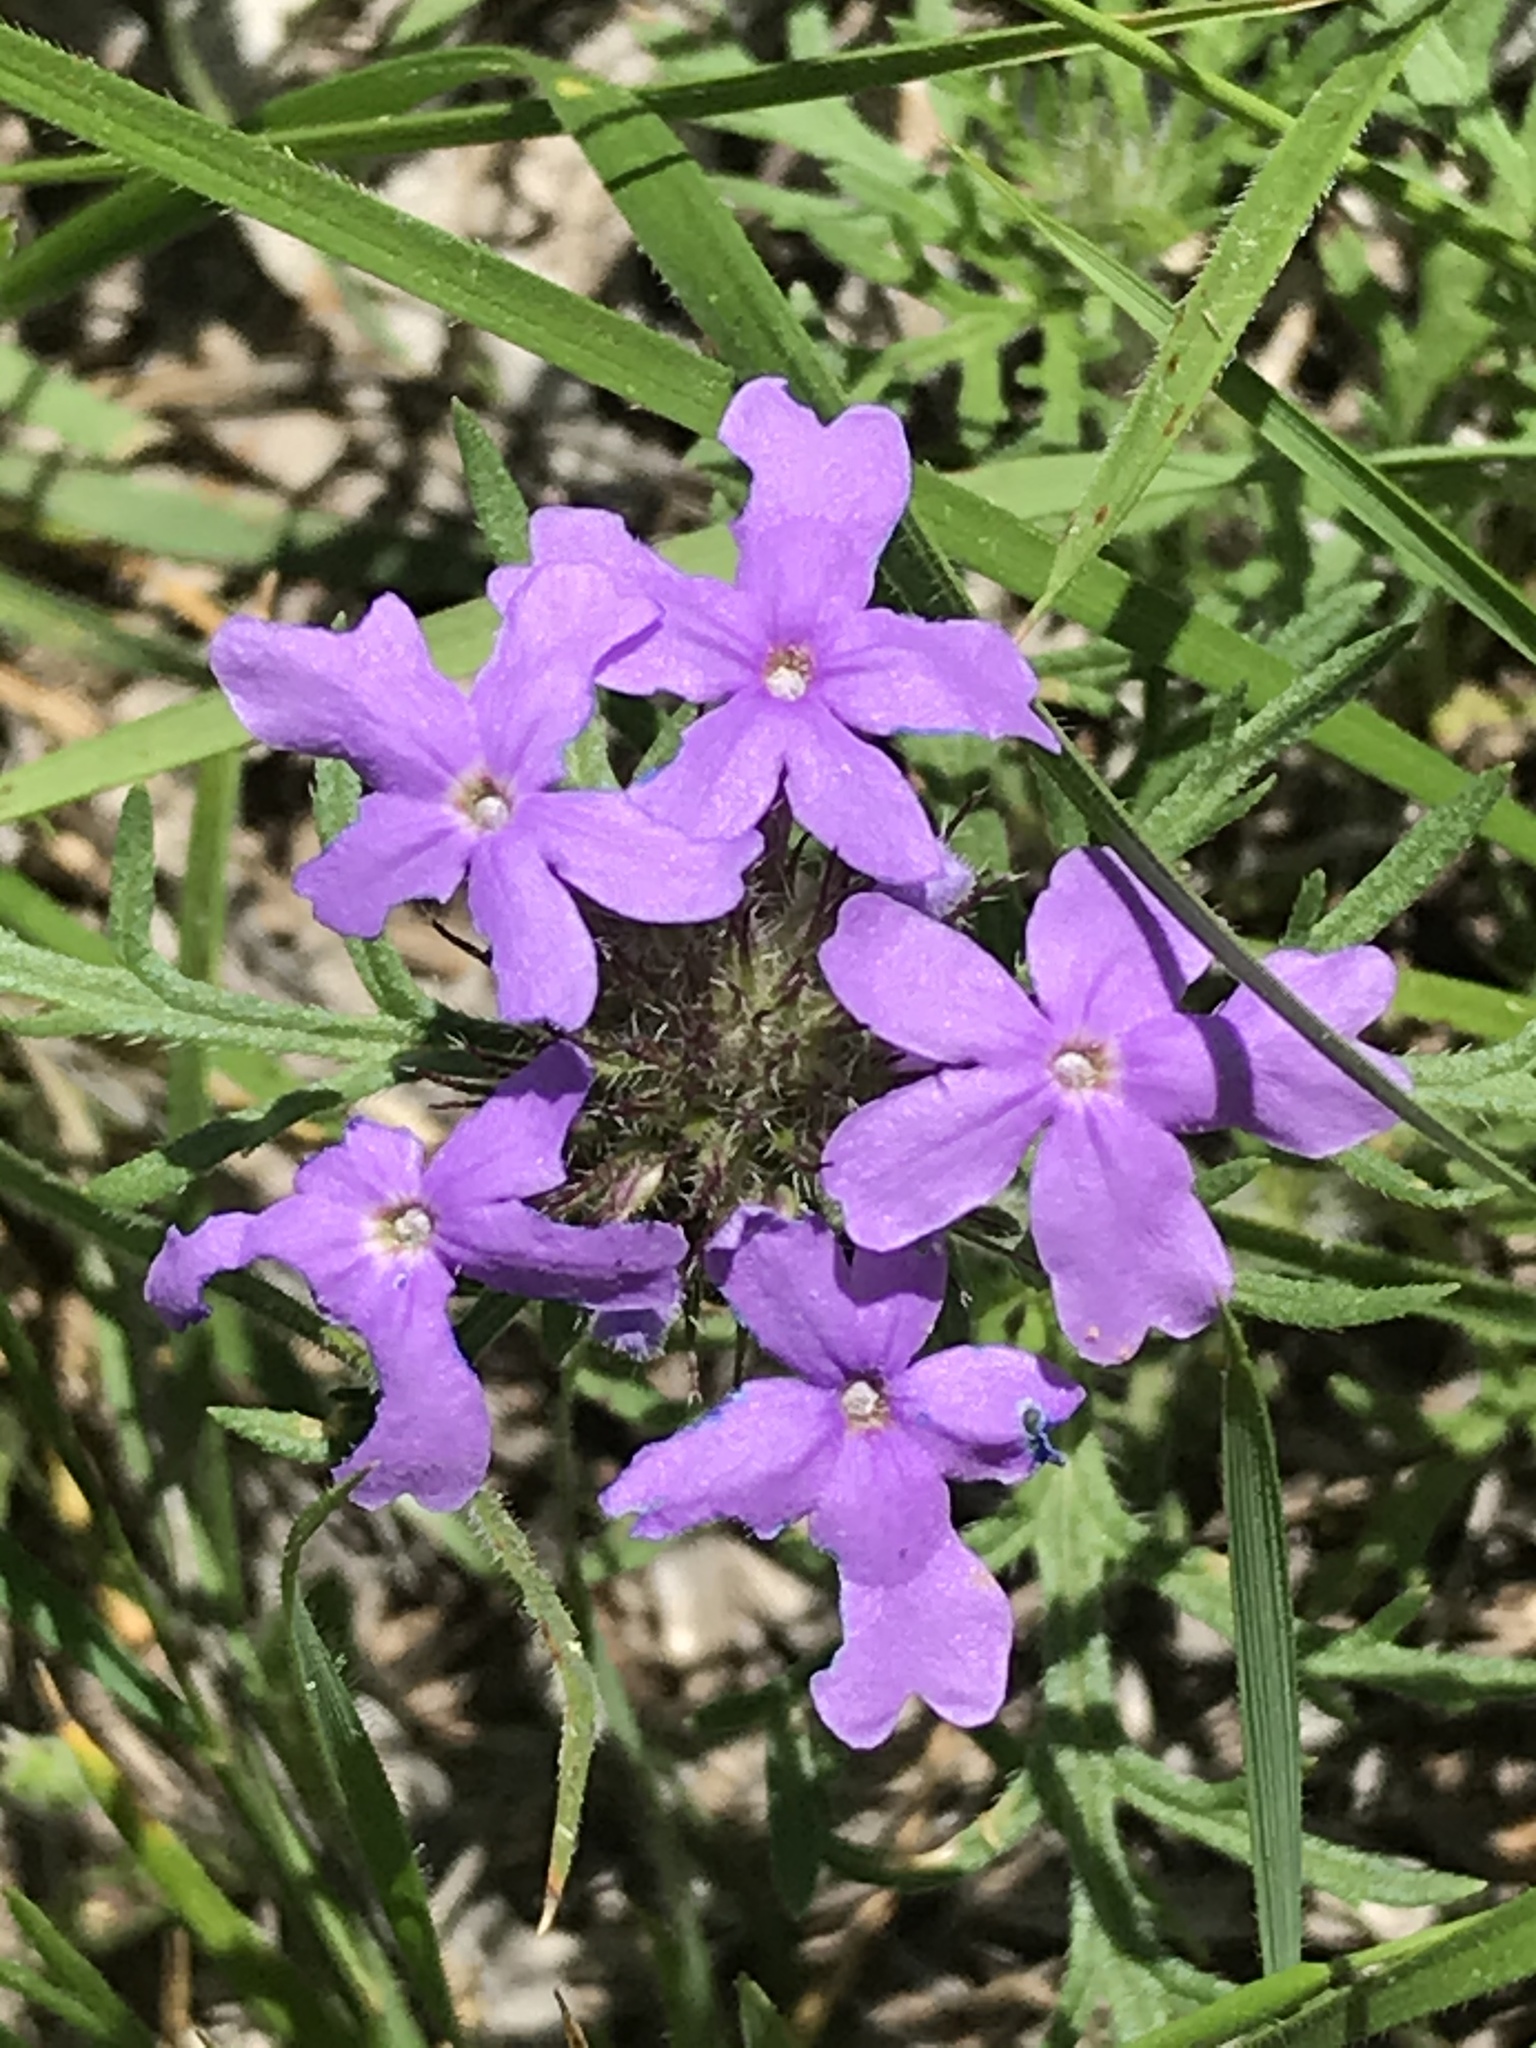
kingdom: Plantae
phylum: Tracheophyta
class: Magnoliopsida
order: Lamiales
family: Verbenaceae
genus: Verbena
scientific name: Verbena bipinnatifida
